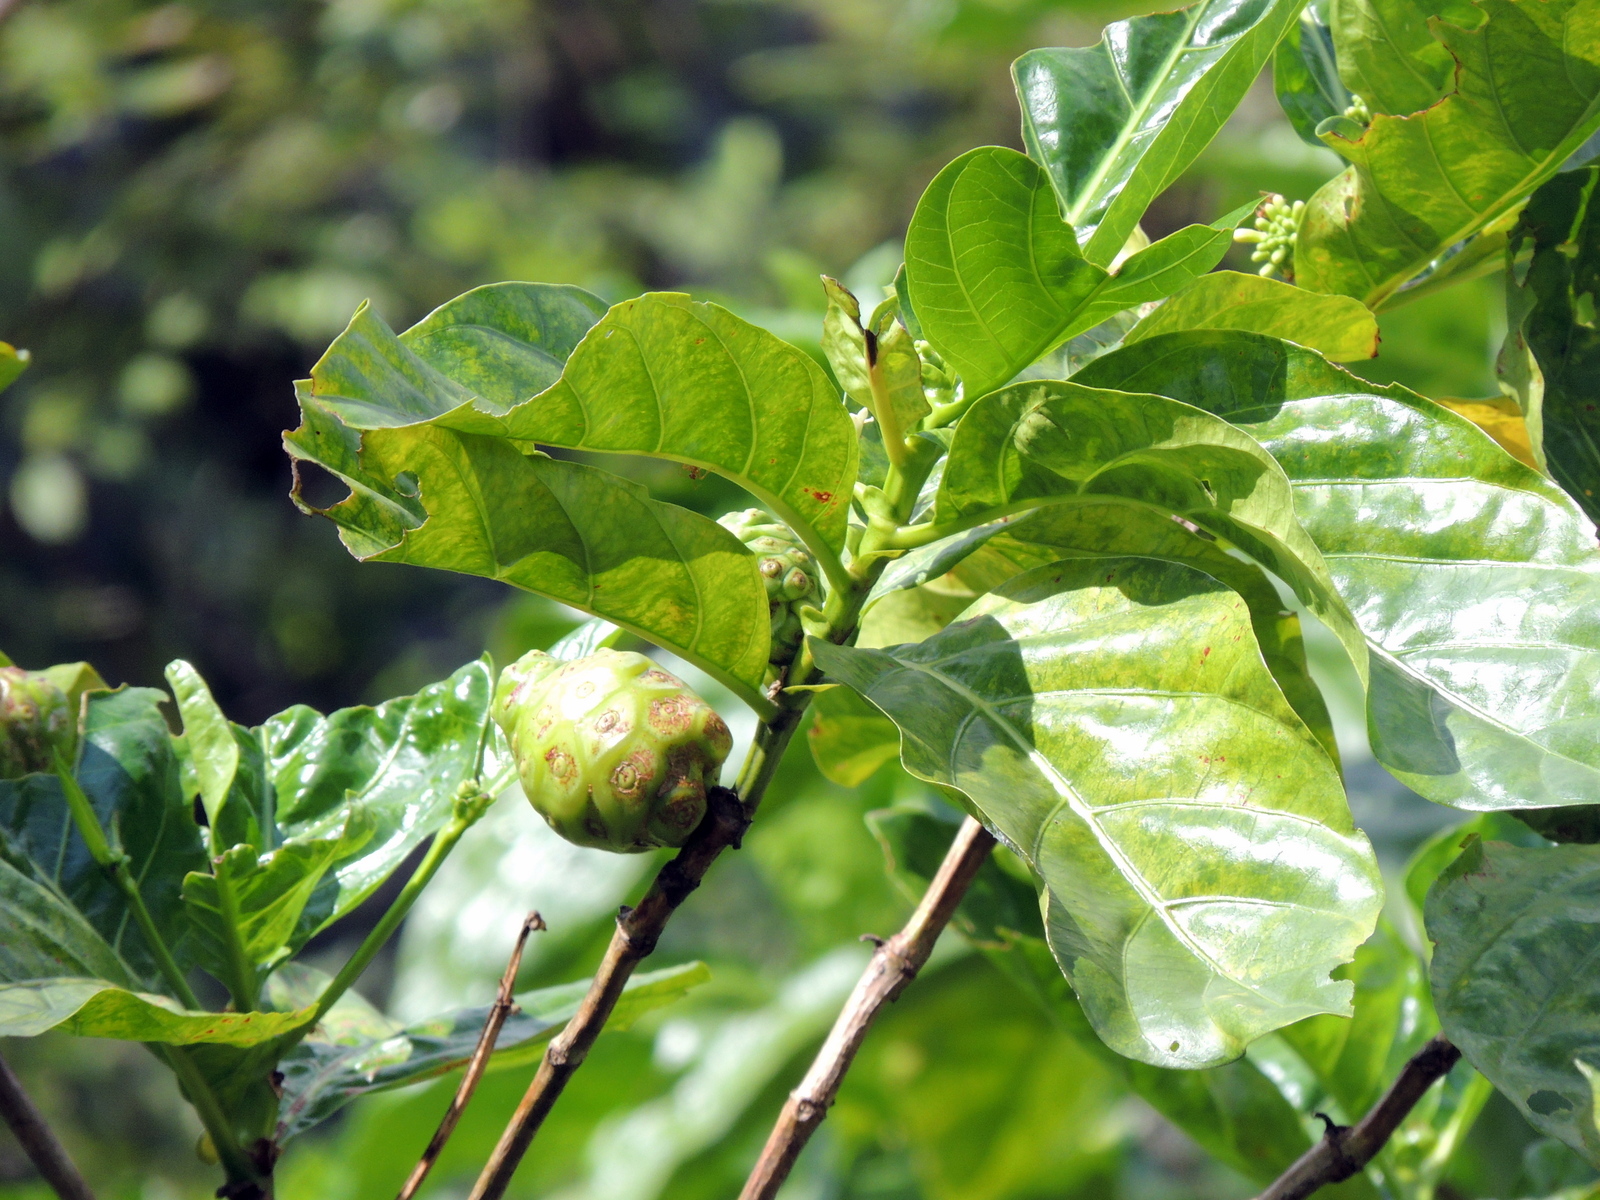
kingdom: Plantae
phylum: Tracheophyta
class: Magnoliopsida
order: Gentianales
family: Rubiaceae
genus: Morinda
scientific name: Morinda citrifolia
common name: Indian-mulberry
